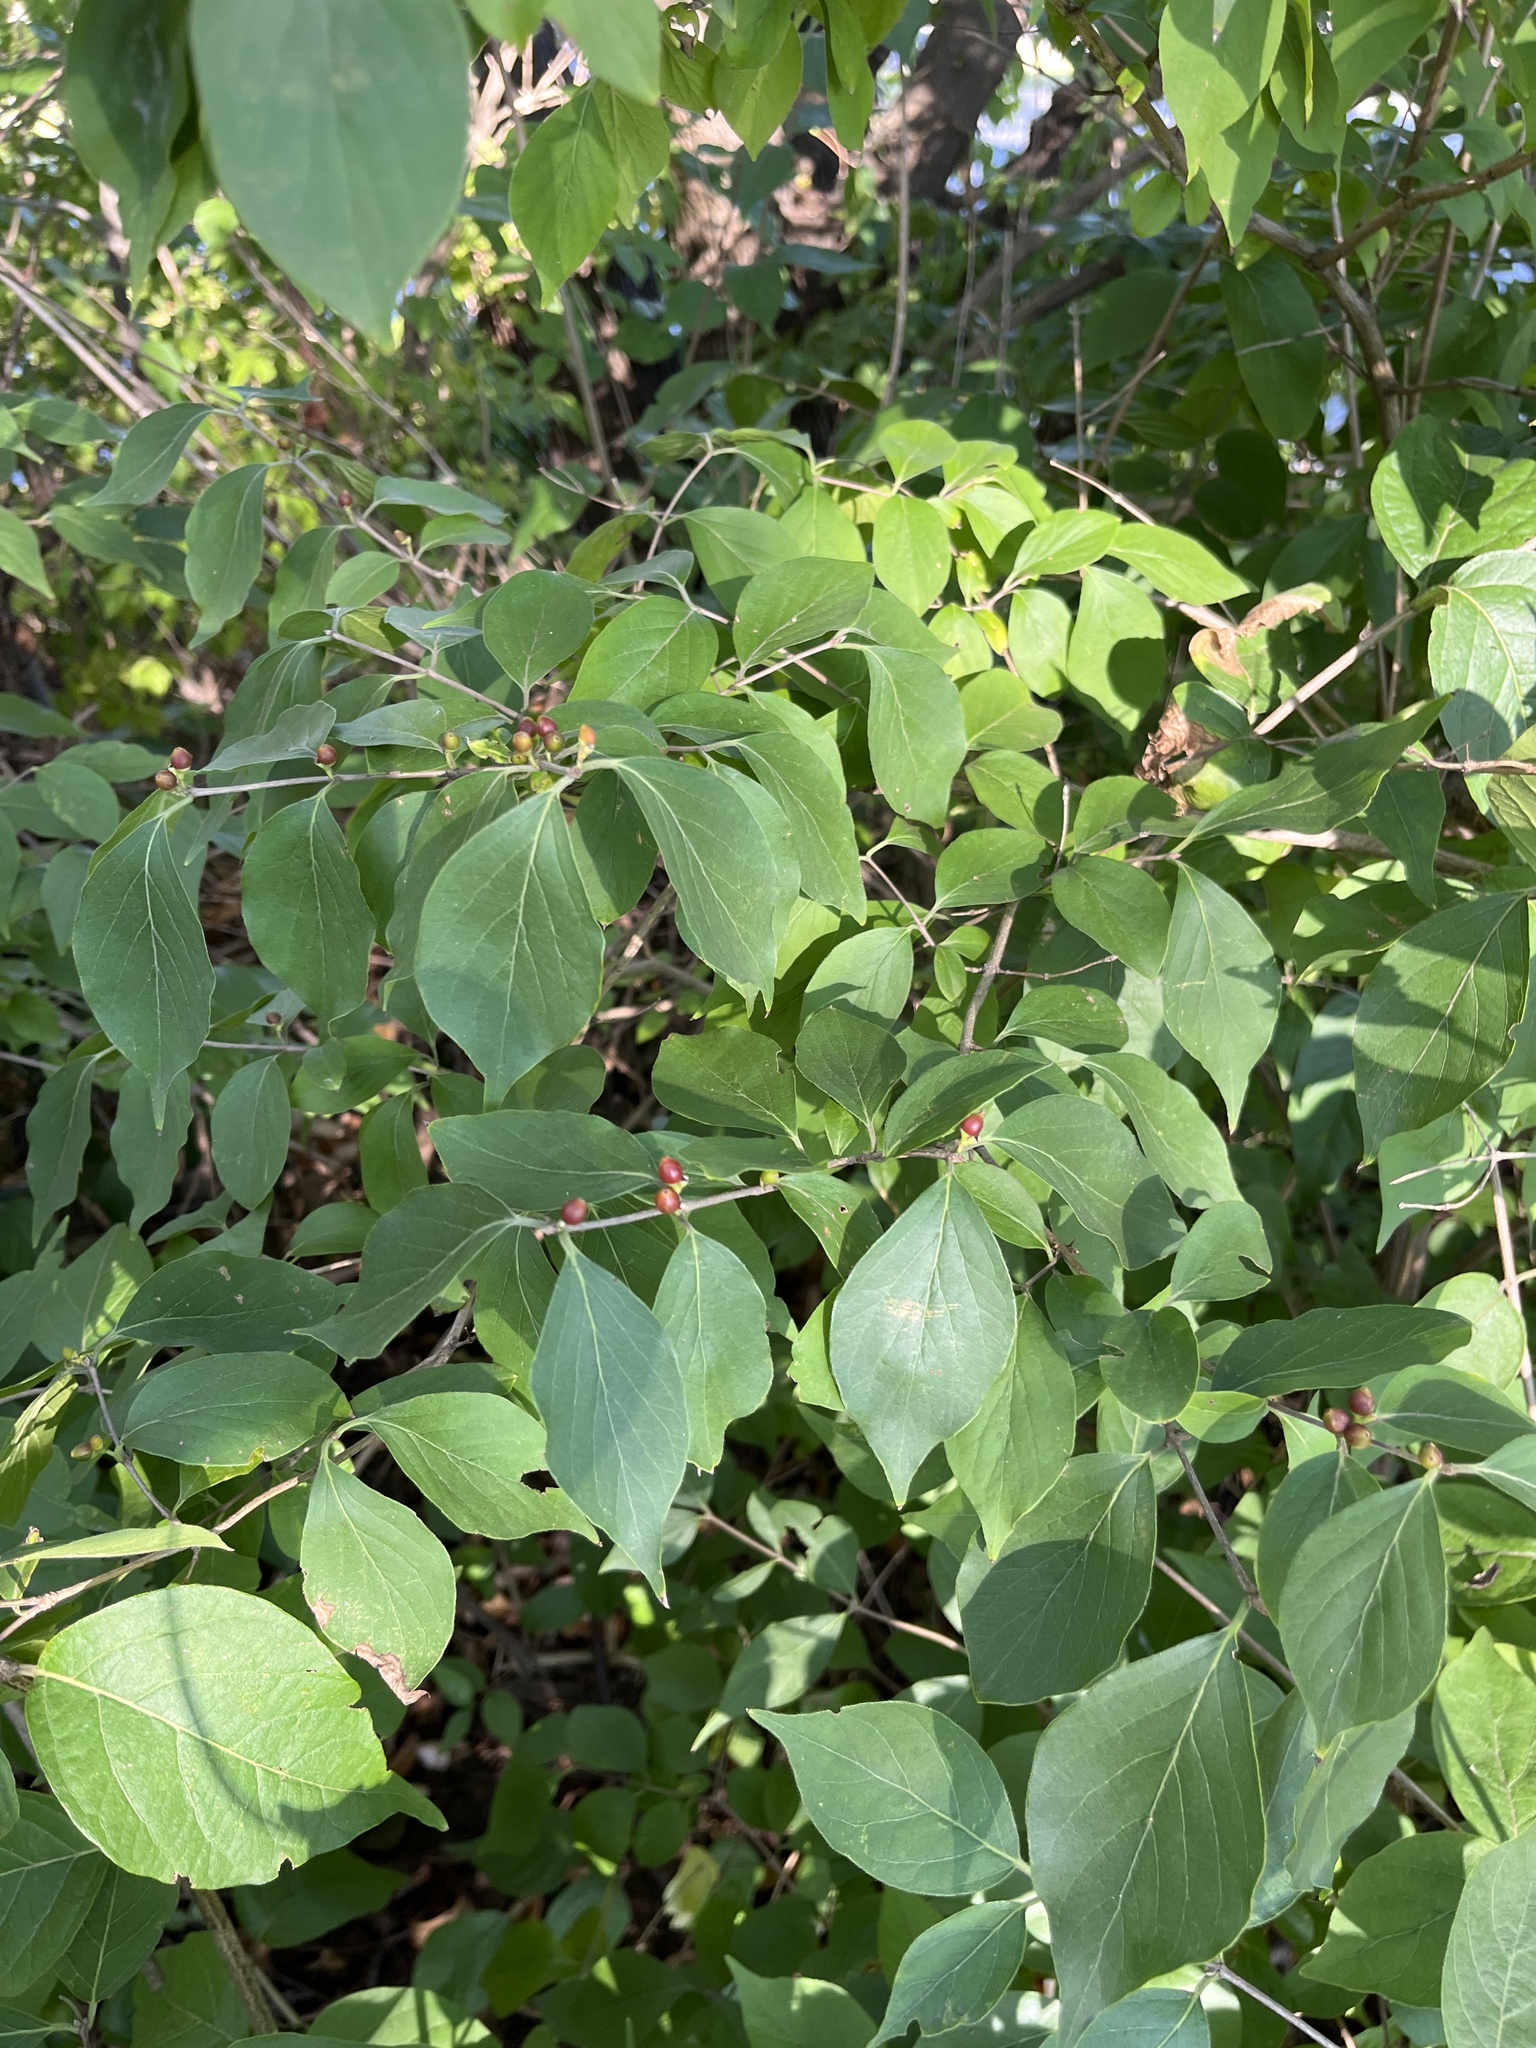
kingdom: Plantae
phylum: Tracheophyta
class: Magnoliopsida
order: Dipsacales
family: Caprifoliaceae
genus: Lonicera
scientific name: Lonicera maackii
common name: Amur honeysuckle
